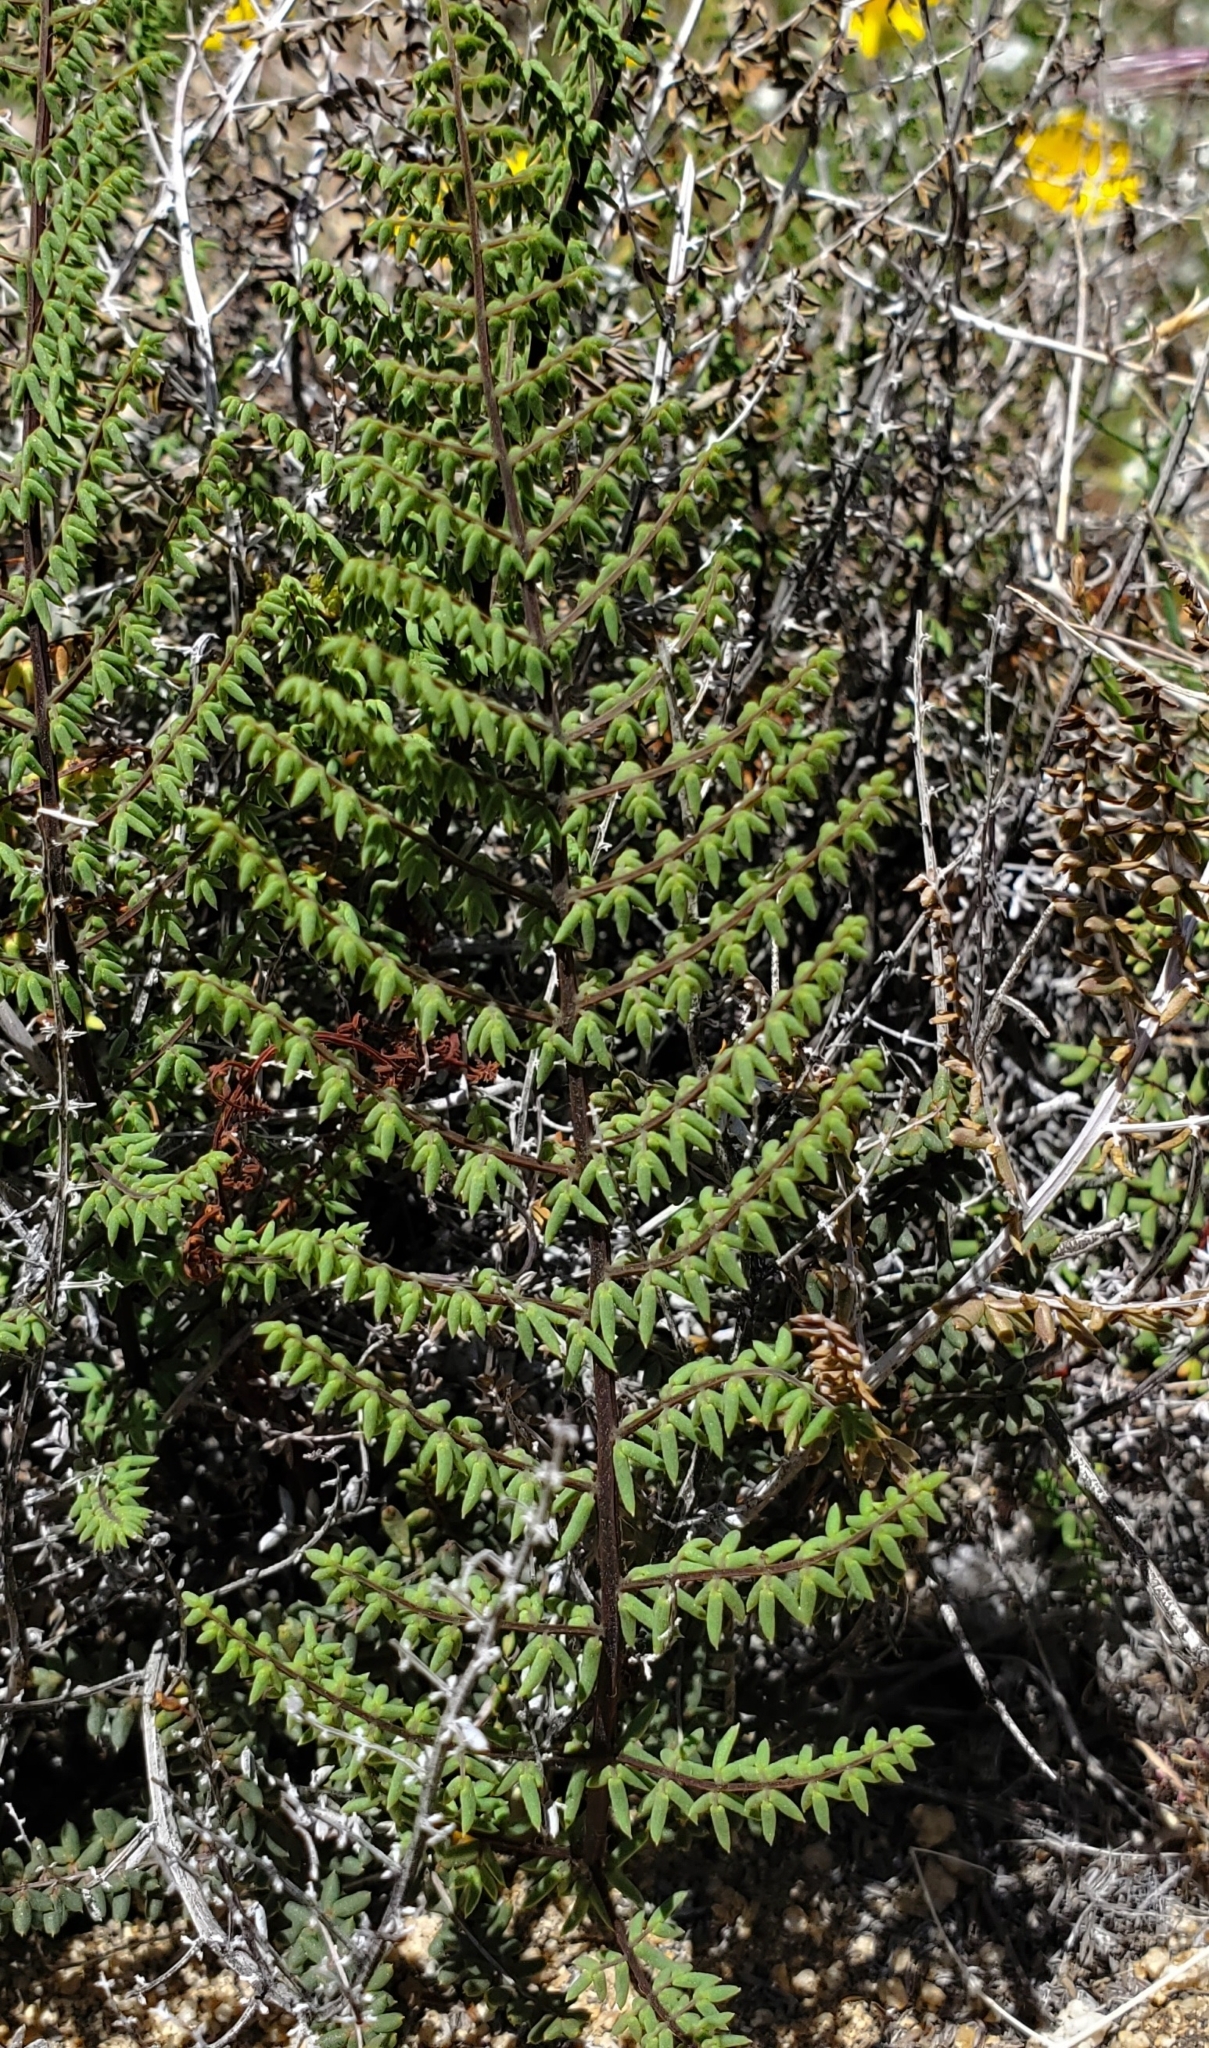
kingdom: Plantae
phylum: Tracheophyta
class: Polypodiopsida
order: Polypodiales
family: Pteridaceae
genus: Pellaea
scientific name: Pellaea mucronata
